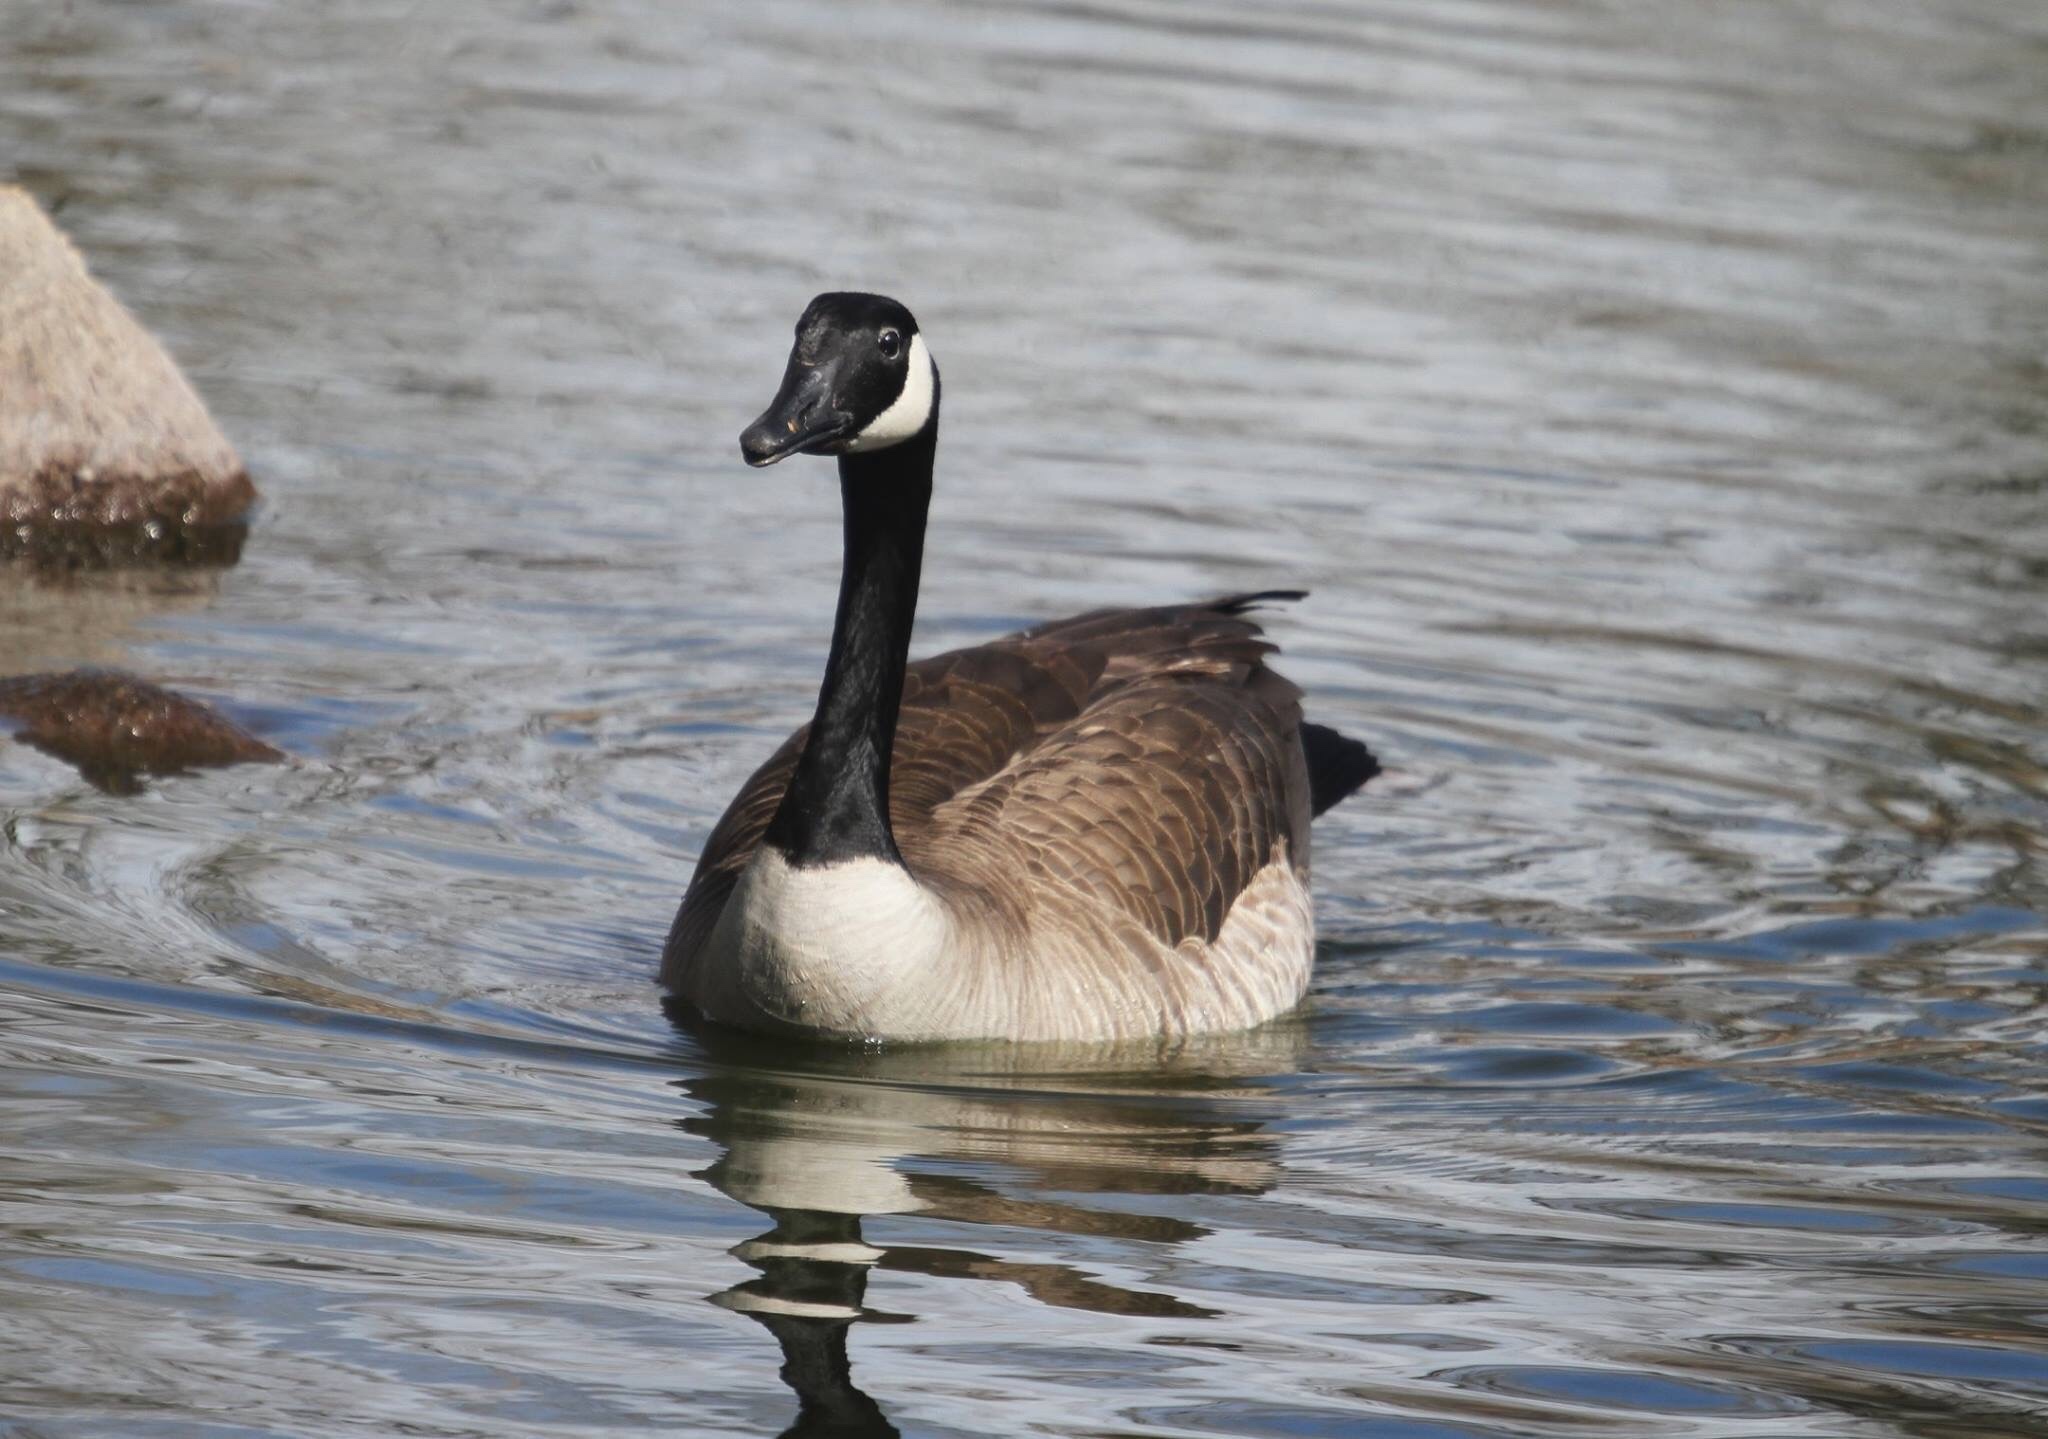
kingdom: Animalia
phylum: Chordata
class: Aves
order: Anseriformes
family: Anatidae
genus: Branta
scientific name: Branta canadensis
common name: Canada goose
